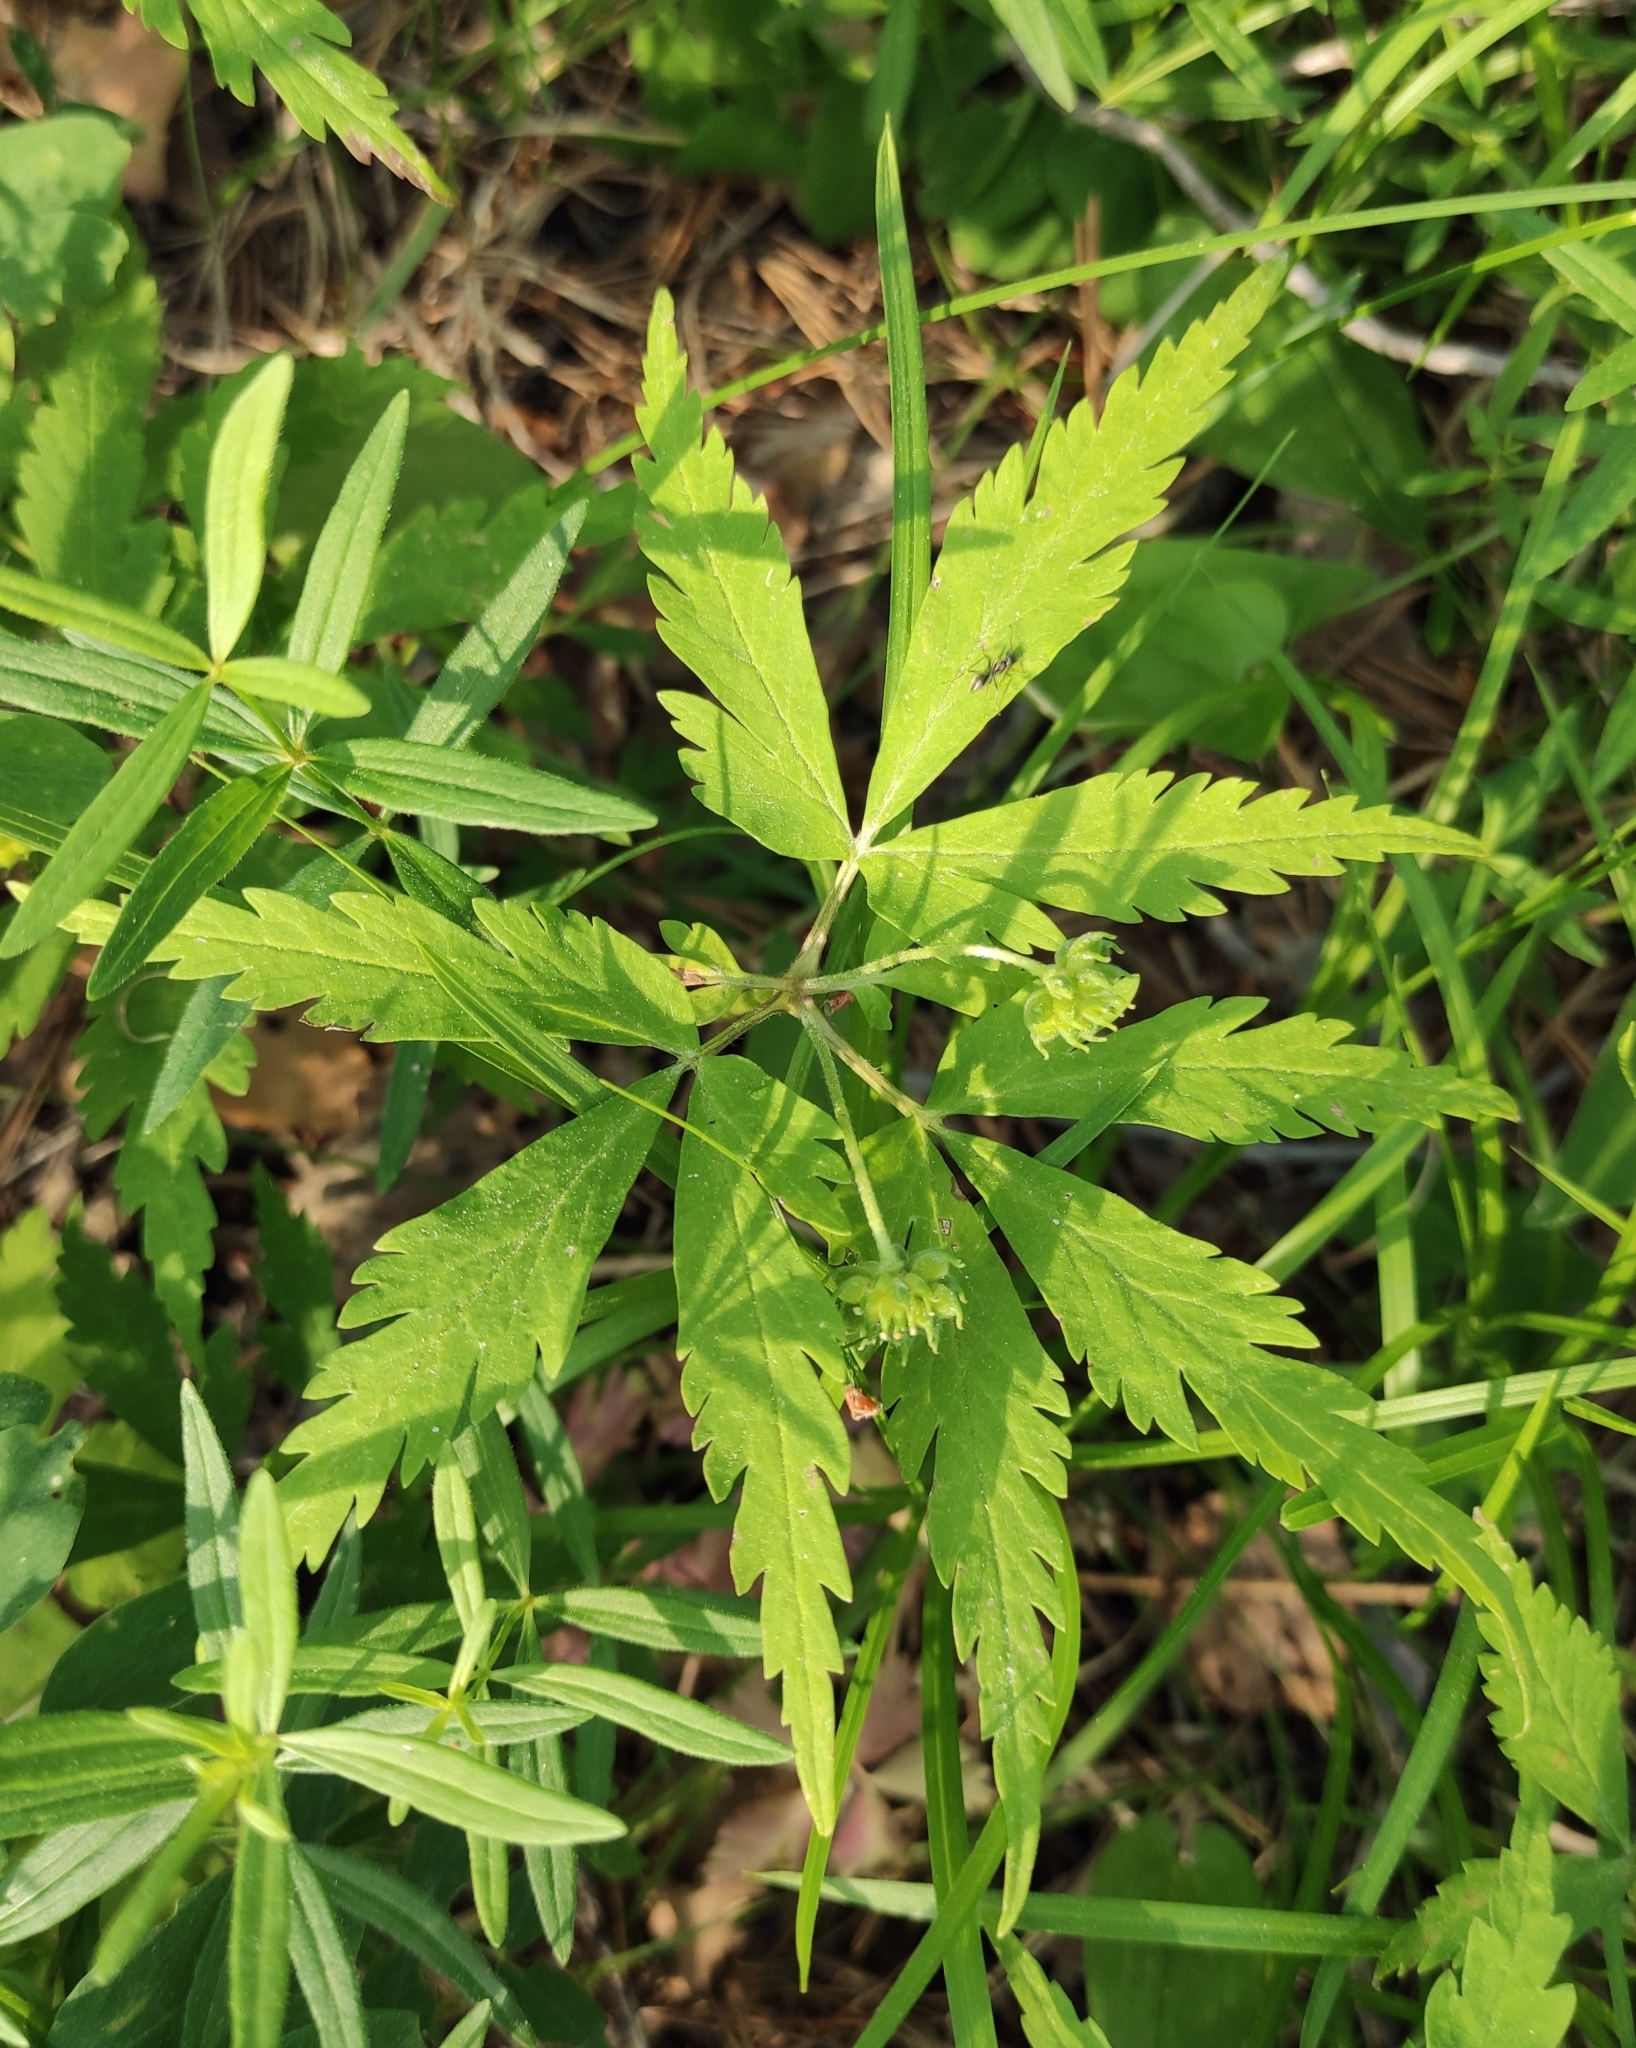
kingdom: Plantae
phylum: Tracheophyta
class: Magnoliopsida
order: Ranunculales
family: Ranunculaceae
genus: Anemone
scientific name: Anemone reflexa
